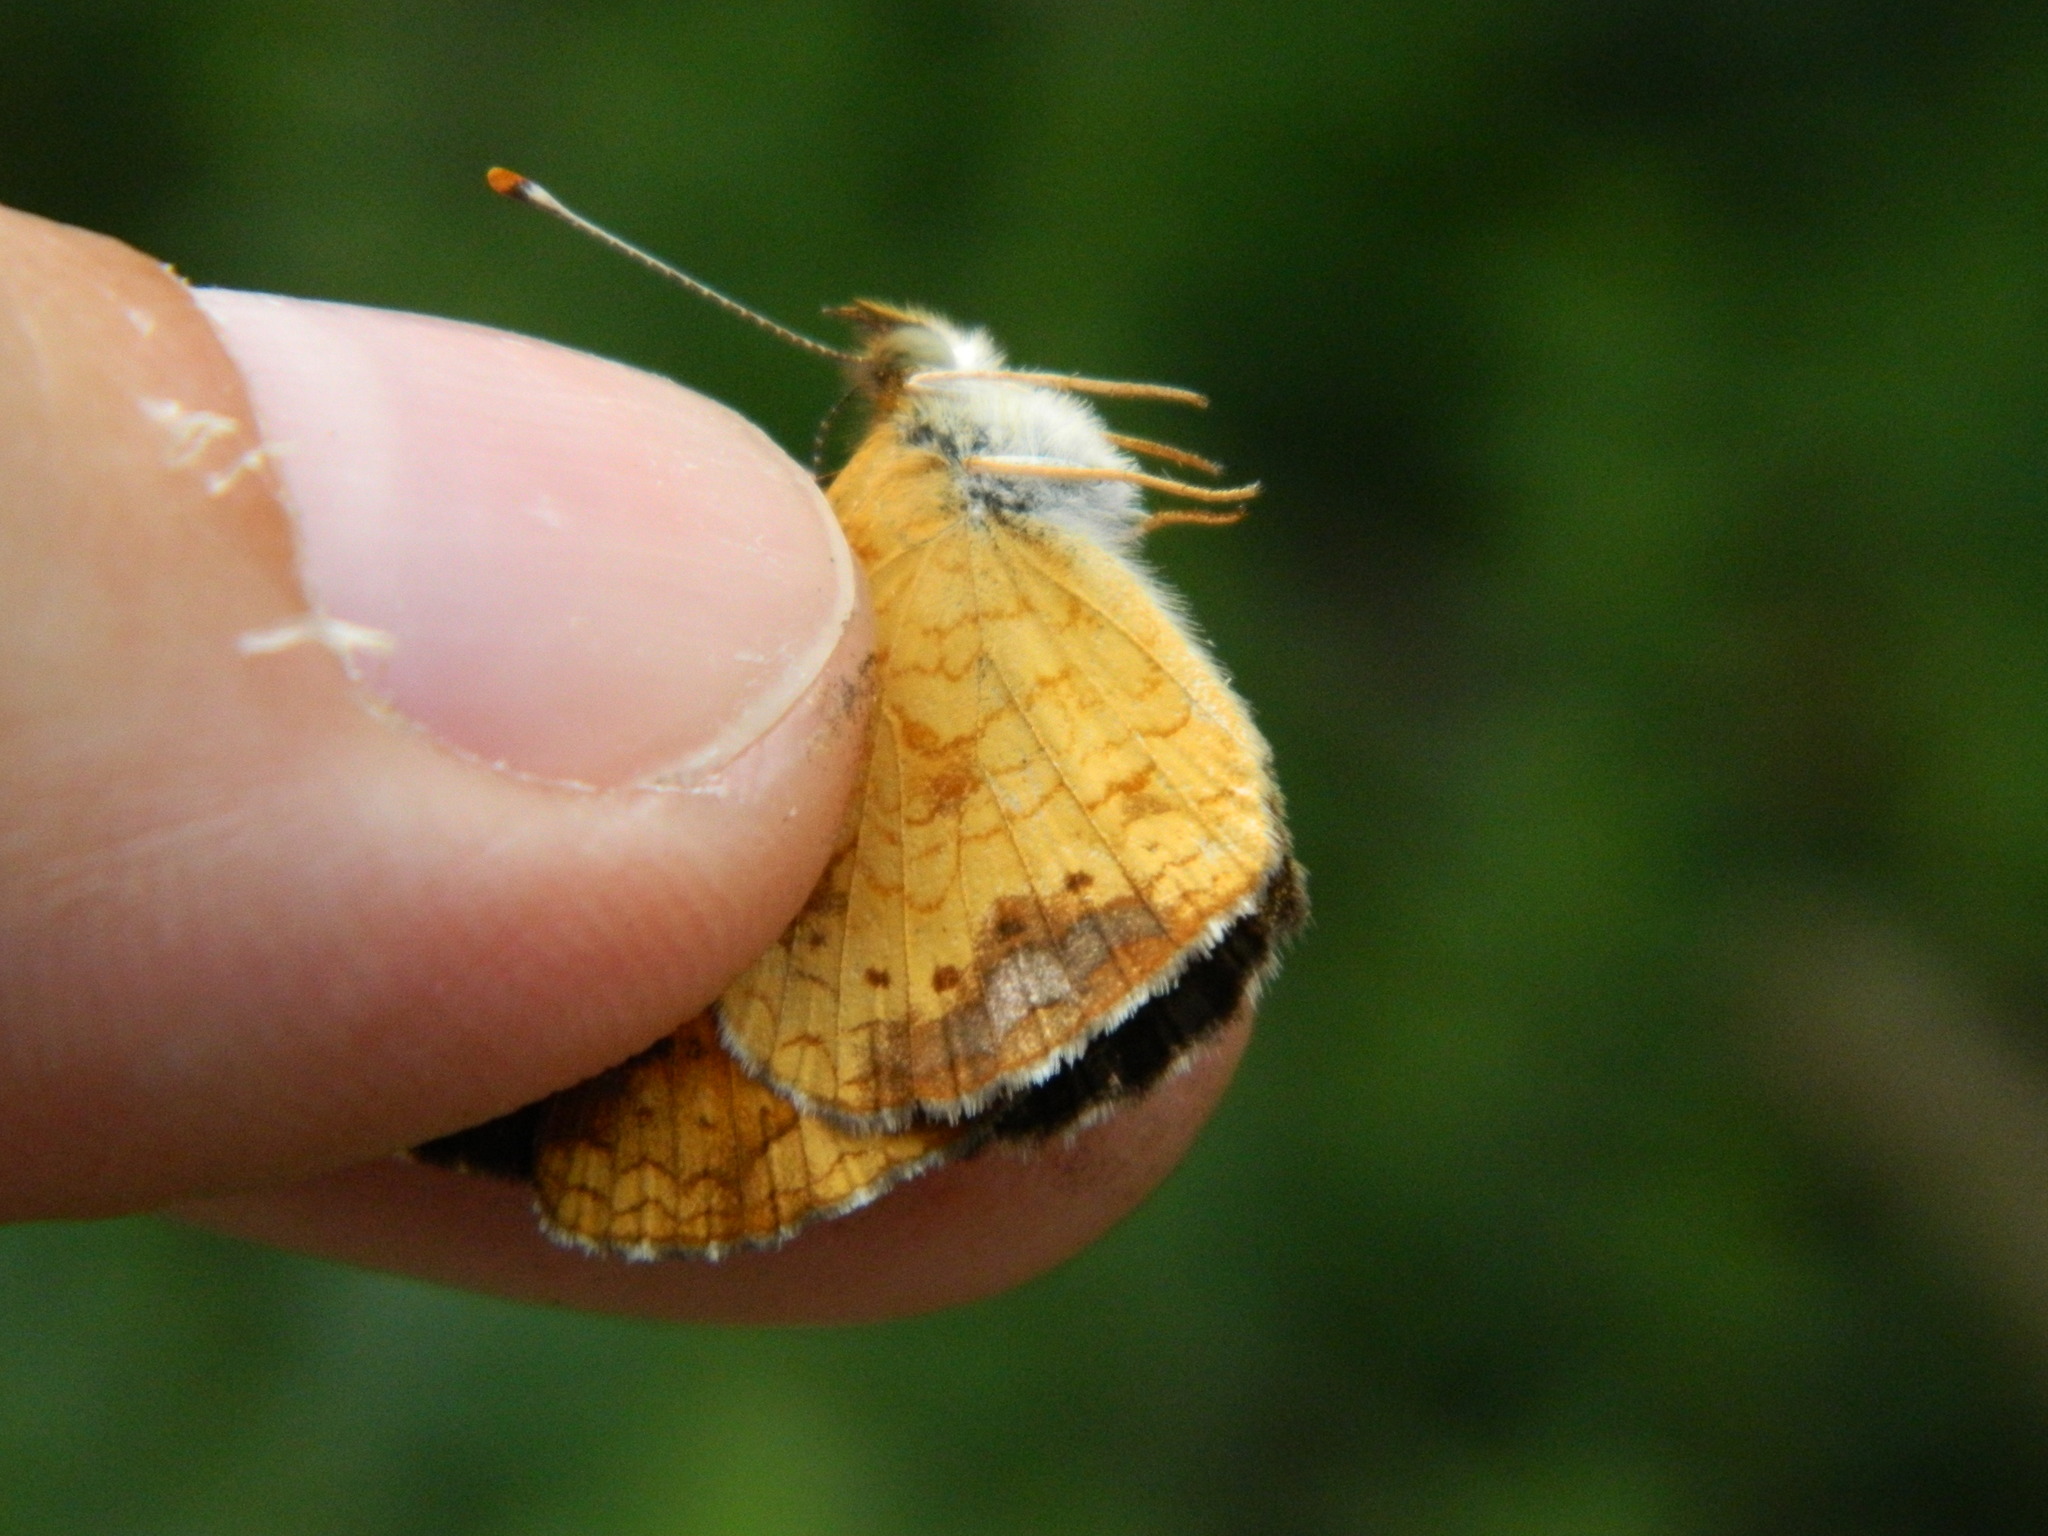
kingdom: Animalia
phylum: Arthropoda
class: Insecta
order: Lepidoptera
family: Nymphalidae
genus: Phyciodes
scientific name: Phyciodes tharos
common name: Pearl crescent
